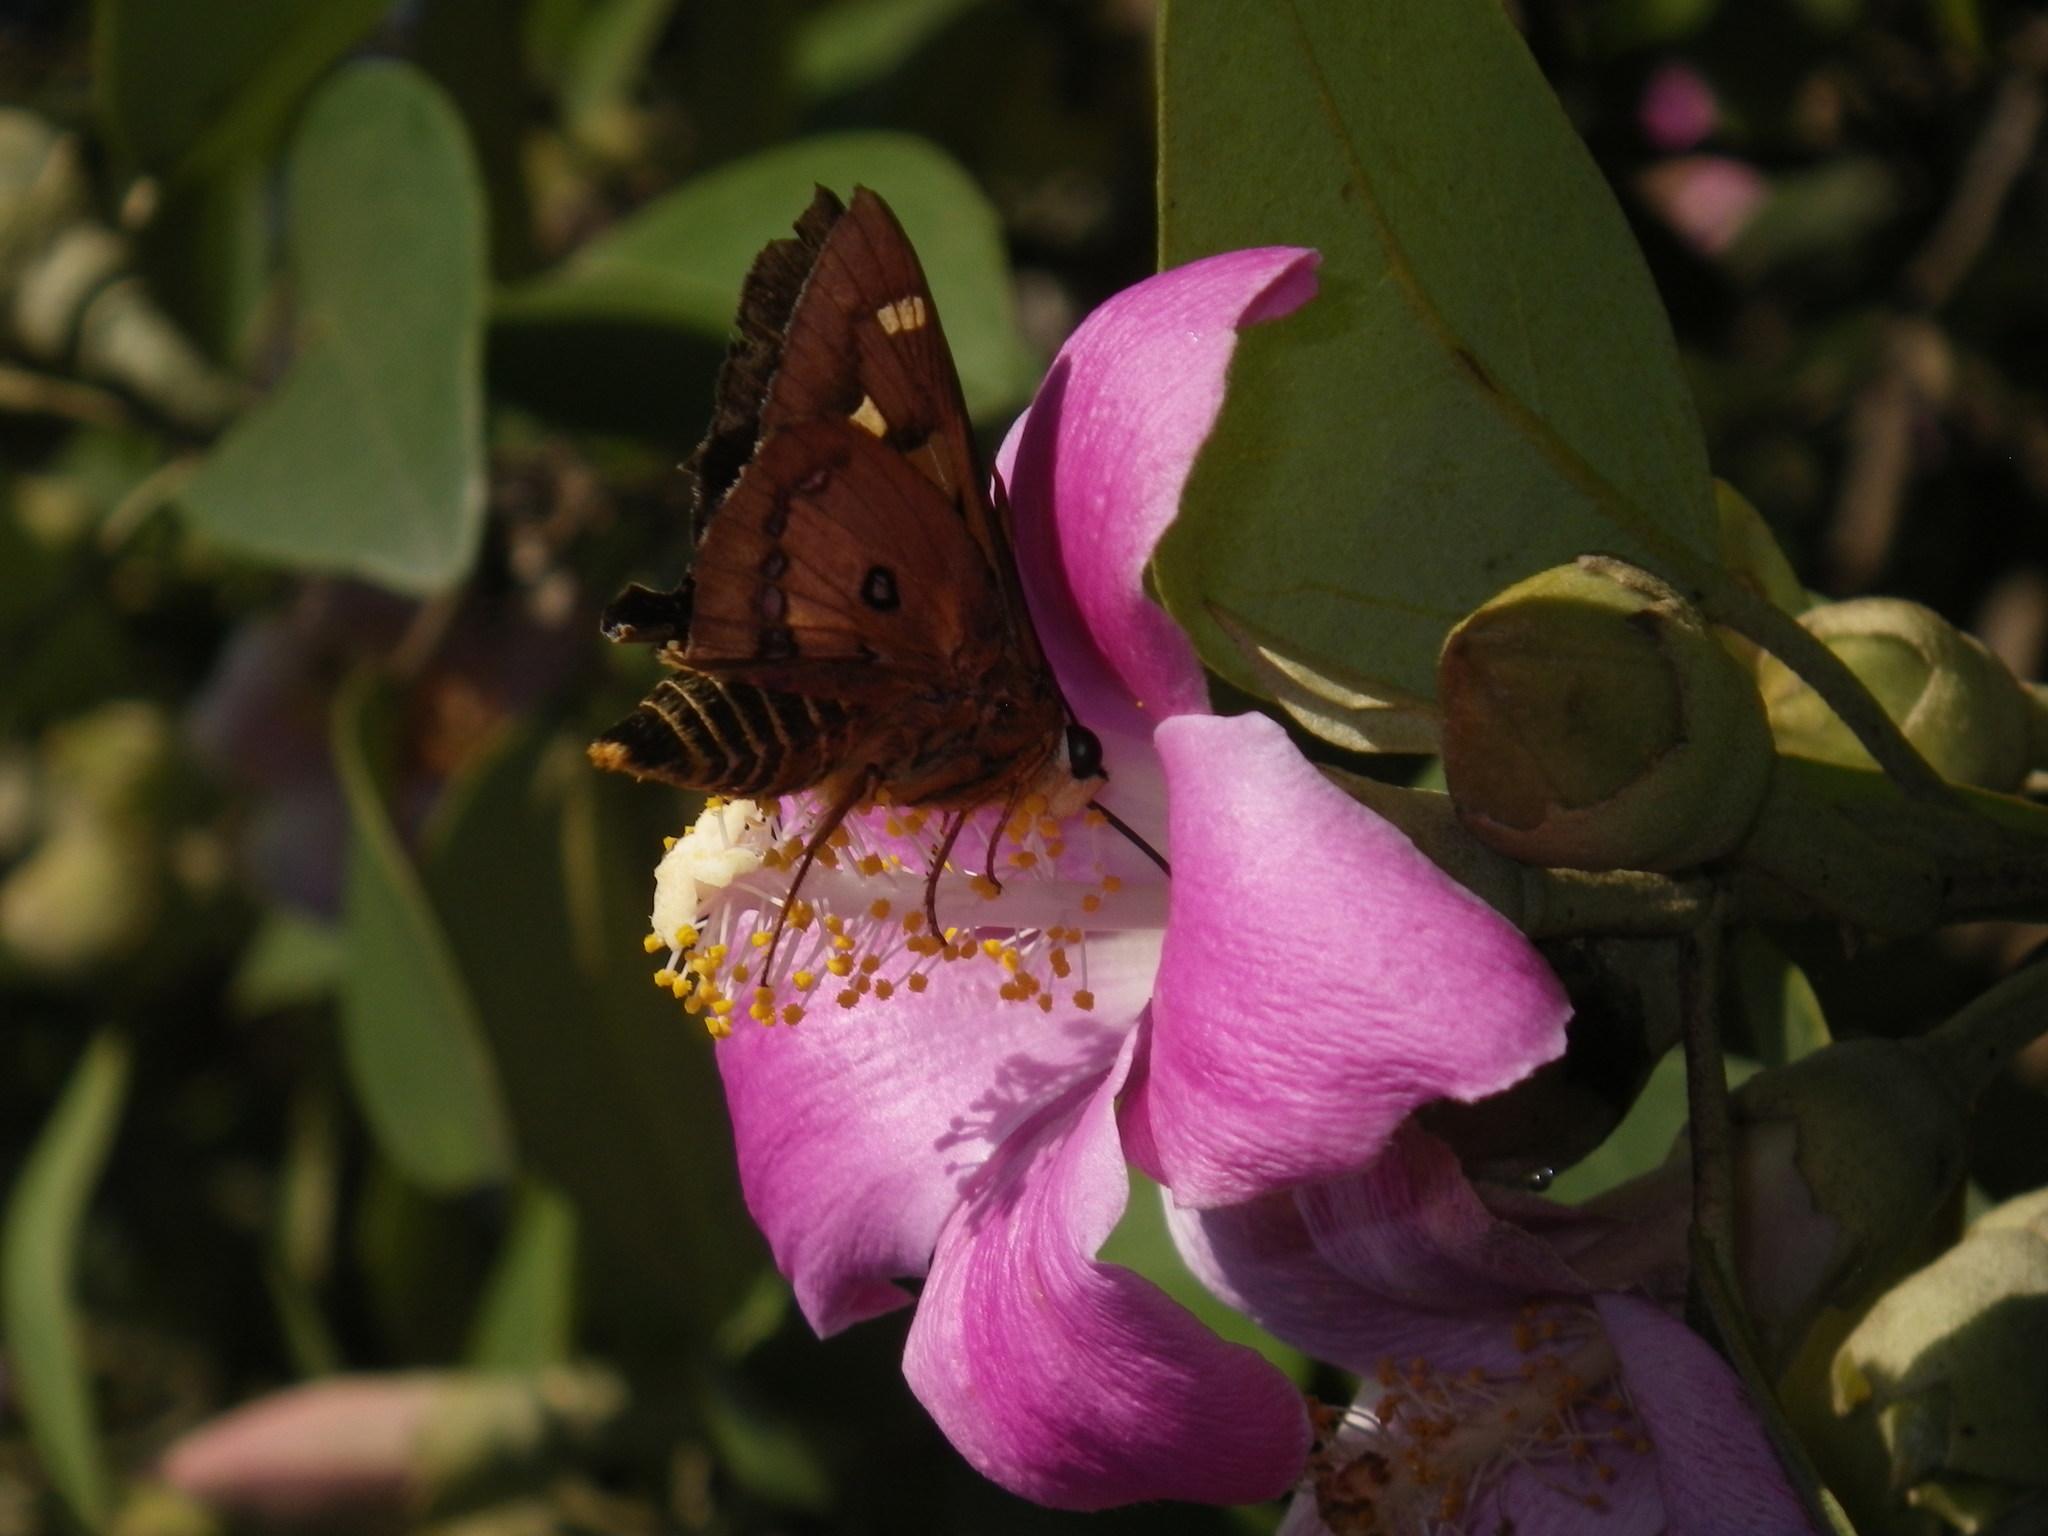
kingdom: Animalia
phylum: Arthropoda
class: Insecta
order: Lepidoptera
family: Hesperiidae
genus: Trapezites
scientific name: Trapezites symmomus
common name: Splendid ochre
